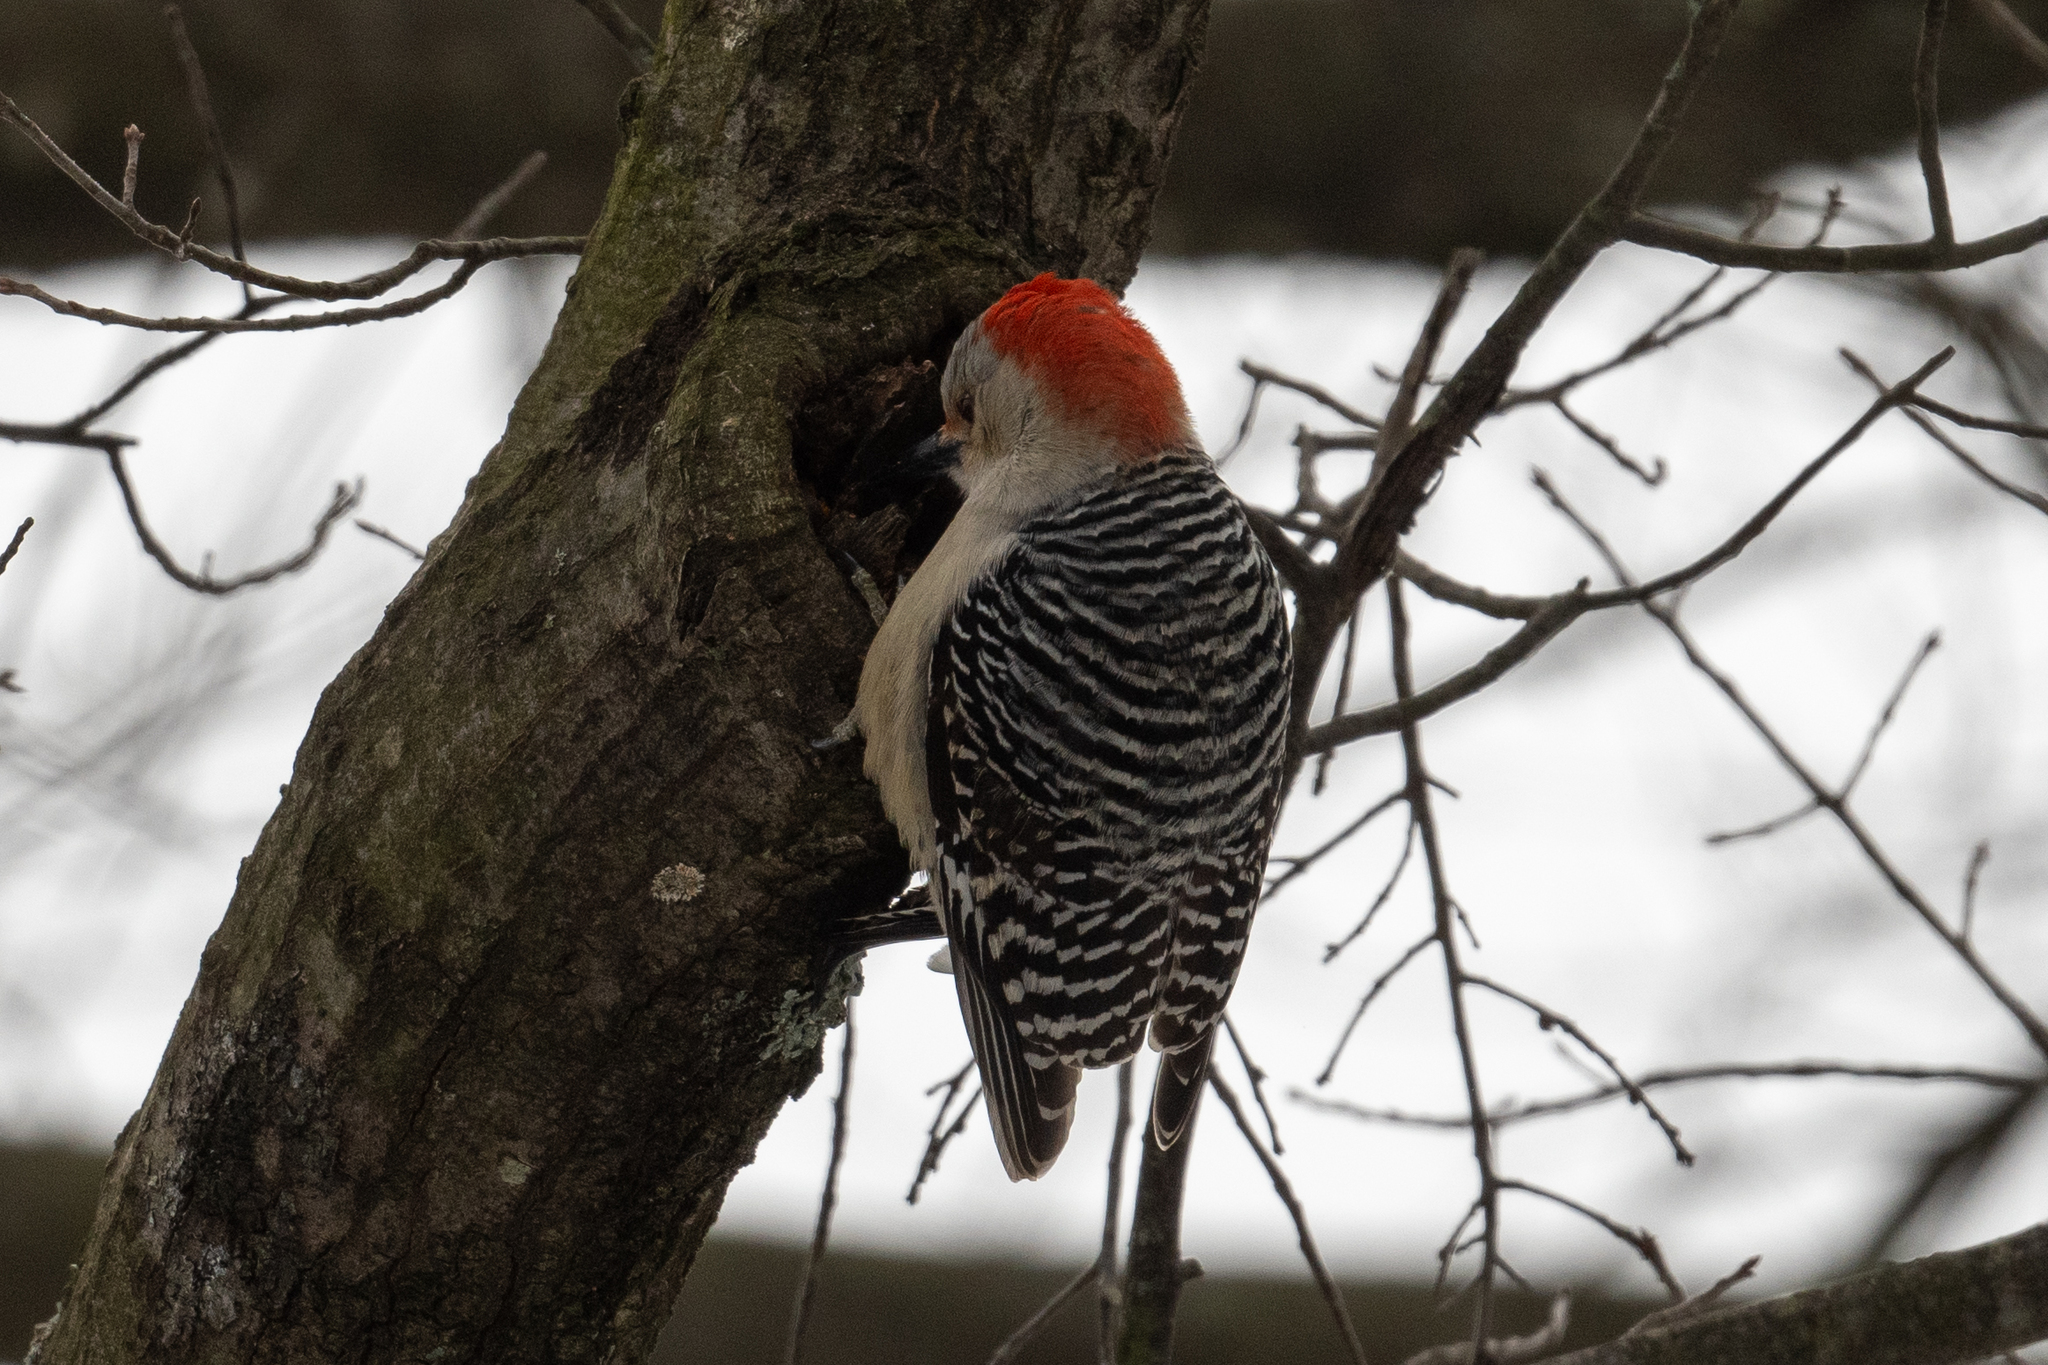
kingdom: Animalia
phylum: Chordata
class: Aves
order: Piciformes
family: Picidae
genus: Melanerpes
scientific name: Melanerpes carolinus
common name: Red-bellied woodpecker
